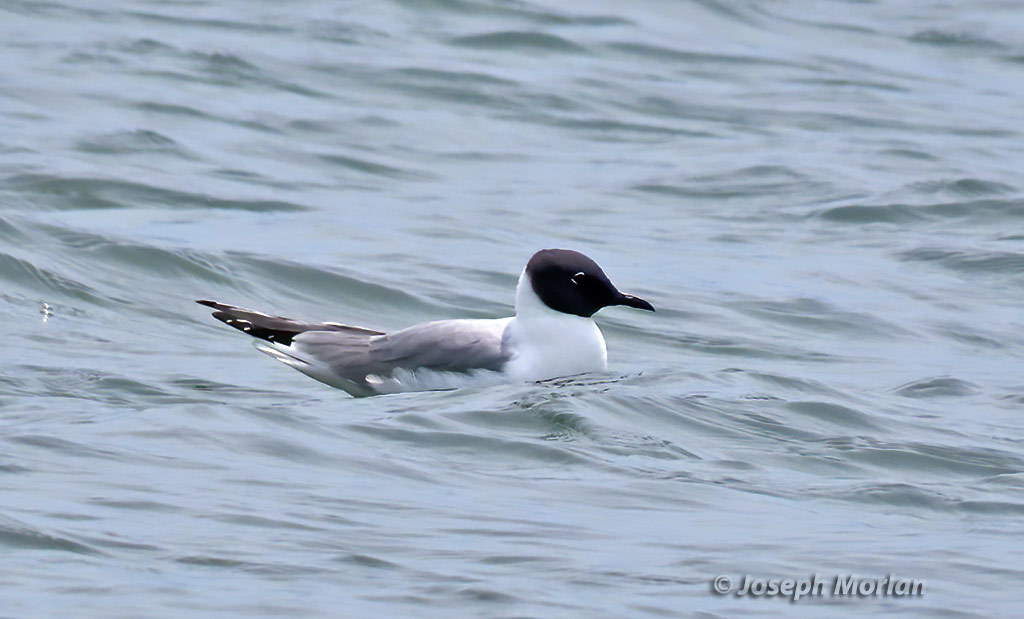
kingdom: Animalia
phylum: Chordata
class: Aves
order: Charadriiformes
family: Laridae
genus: Chroicocephalus
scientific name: Chroicocephalus philadelphia
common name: Bonaparte's gull
